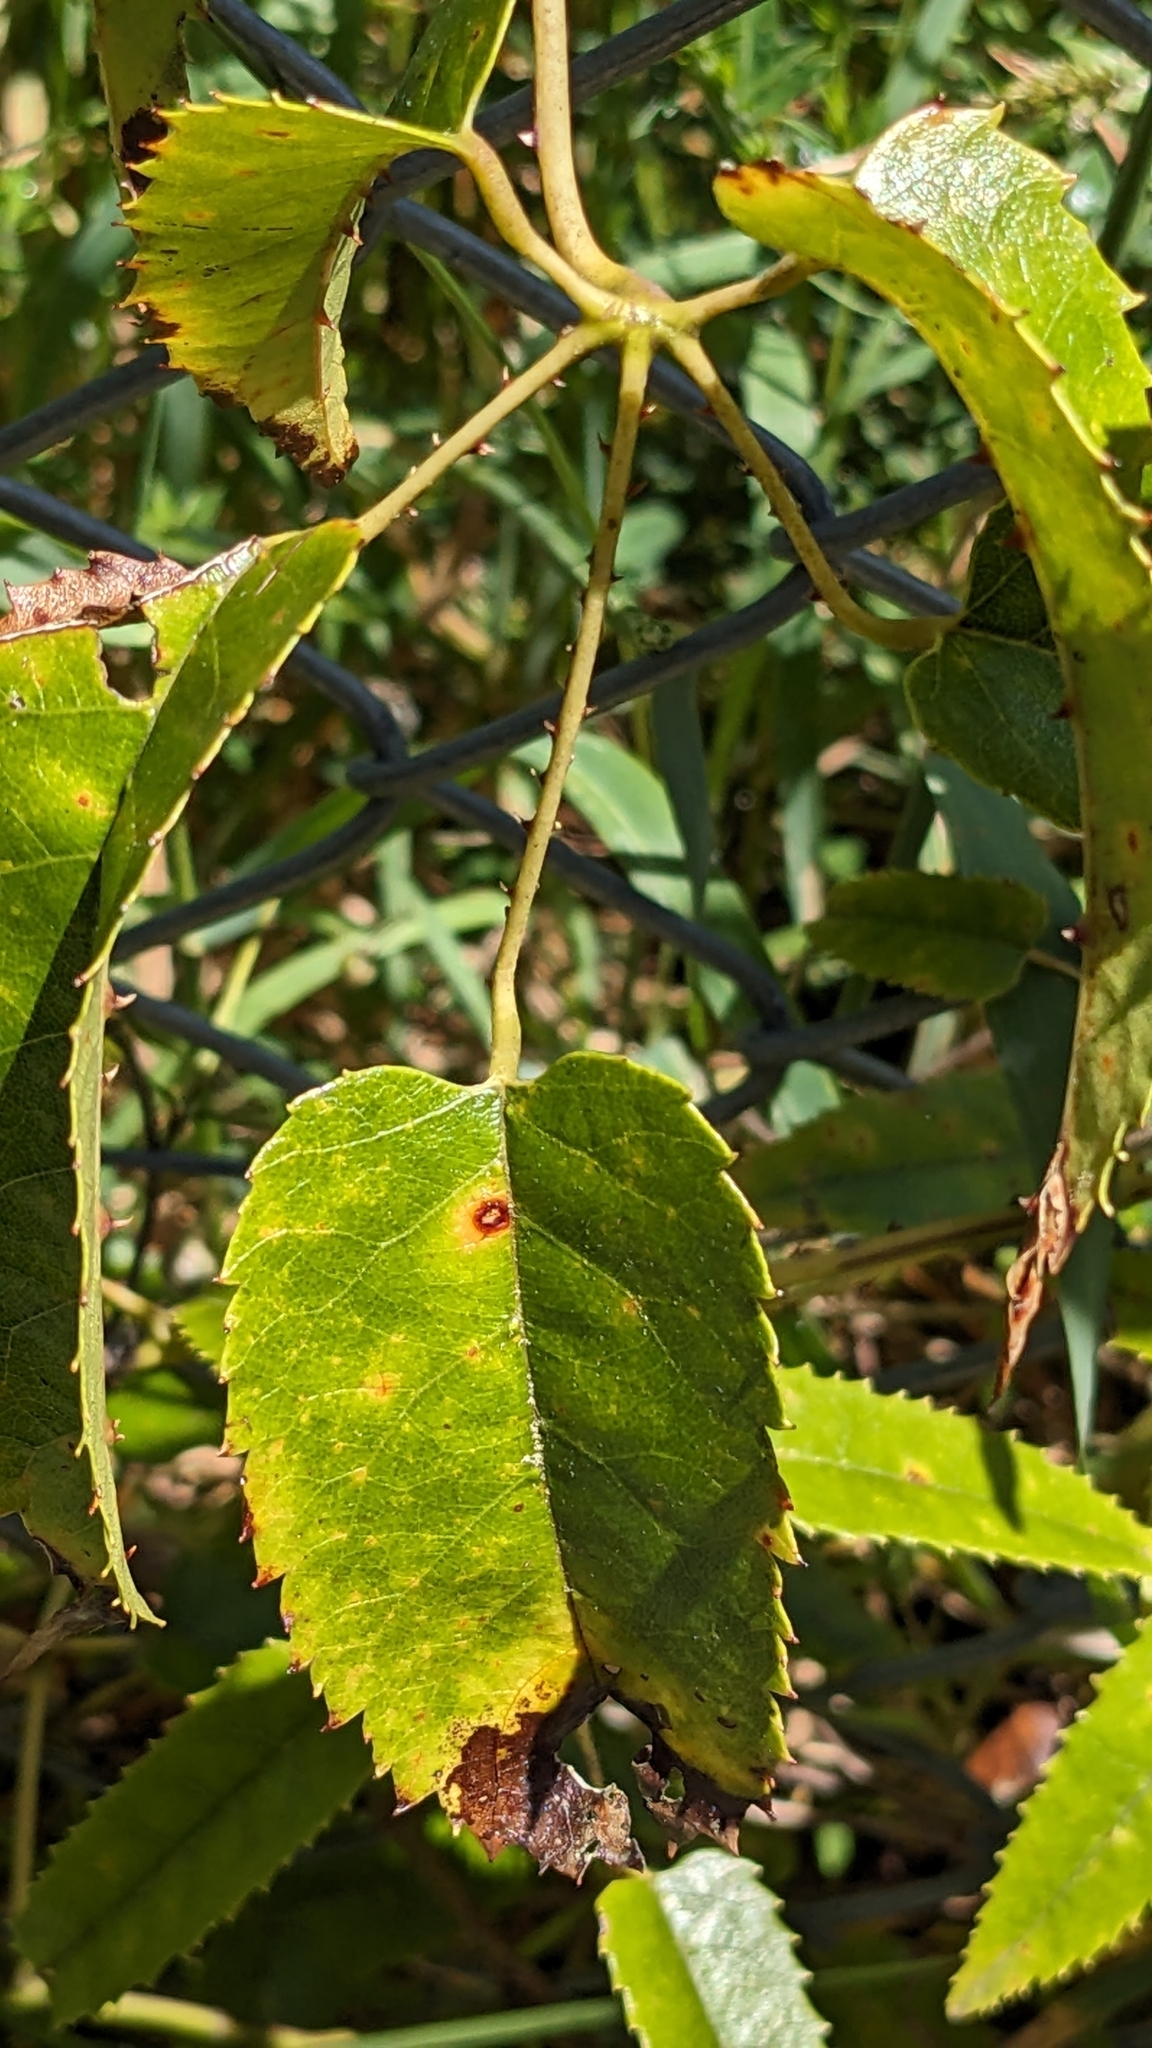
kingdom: Plantae
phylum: Tracheophyta
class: Magnoliopsida
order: Rosales
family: Rosaceae
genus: Rubus
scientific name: Rubus cissoides
